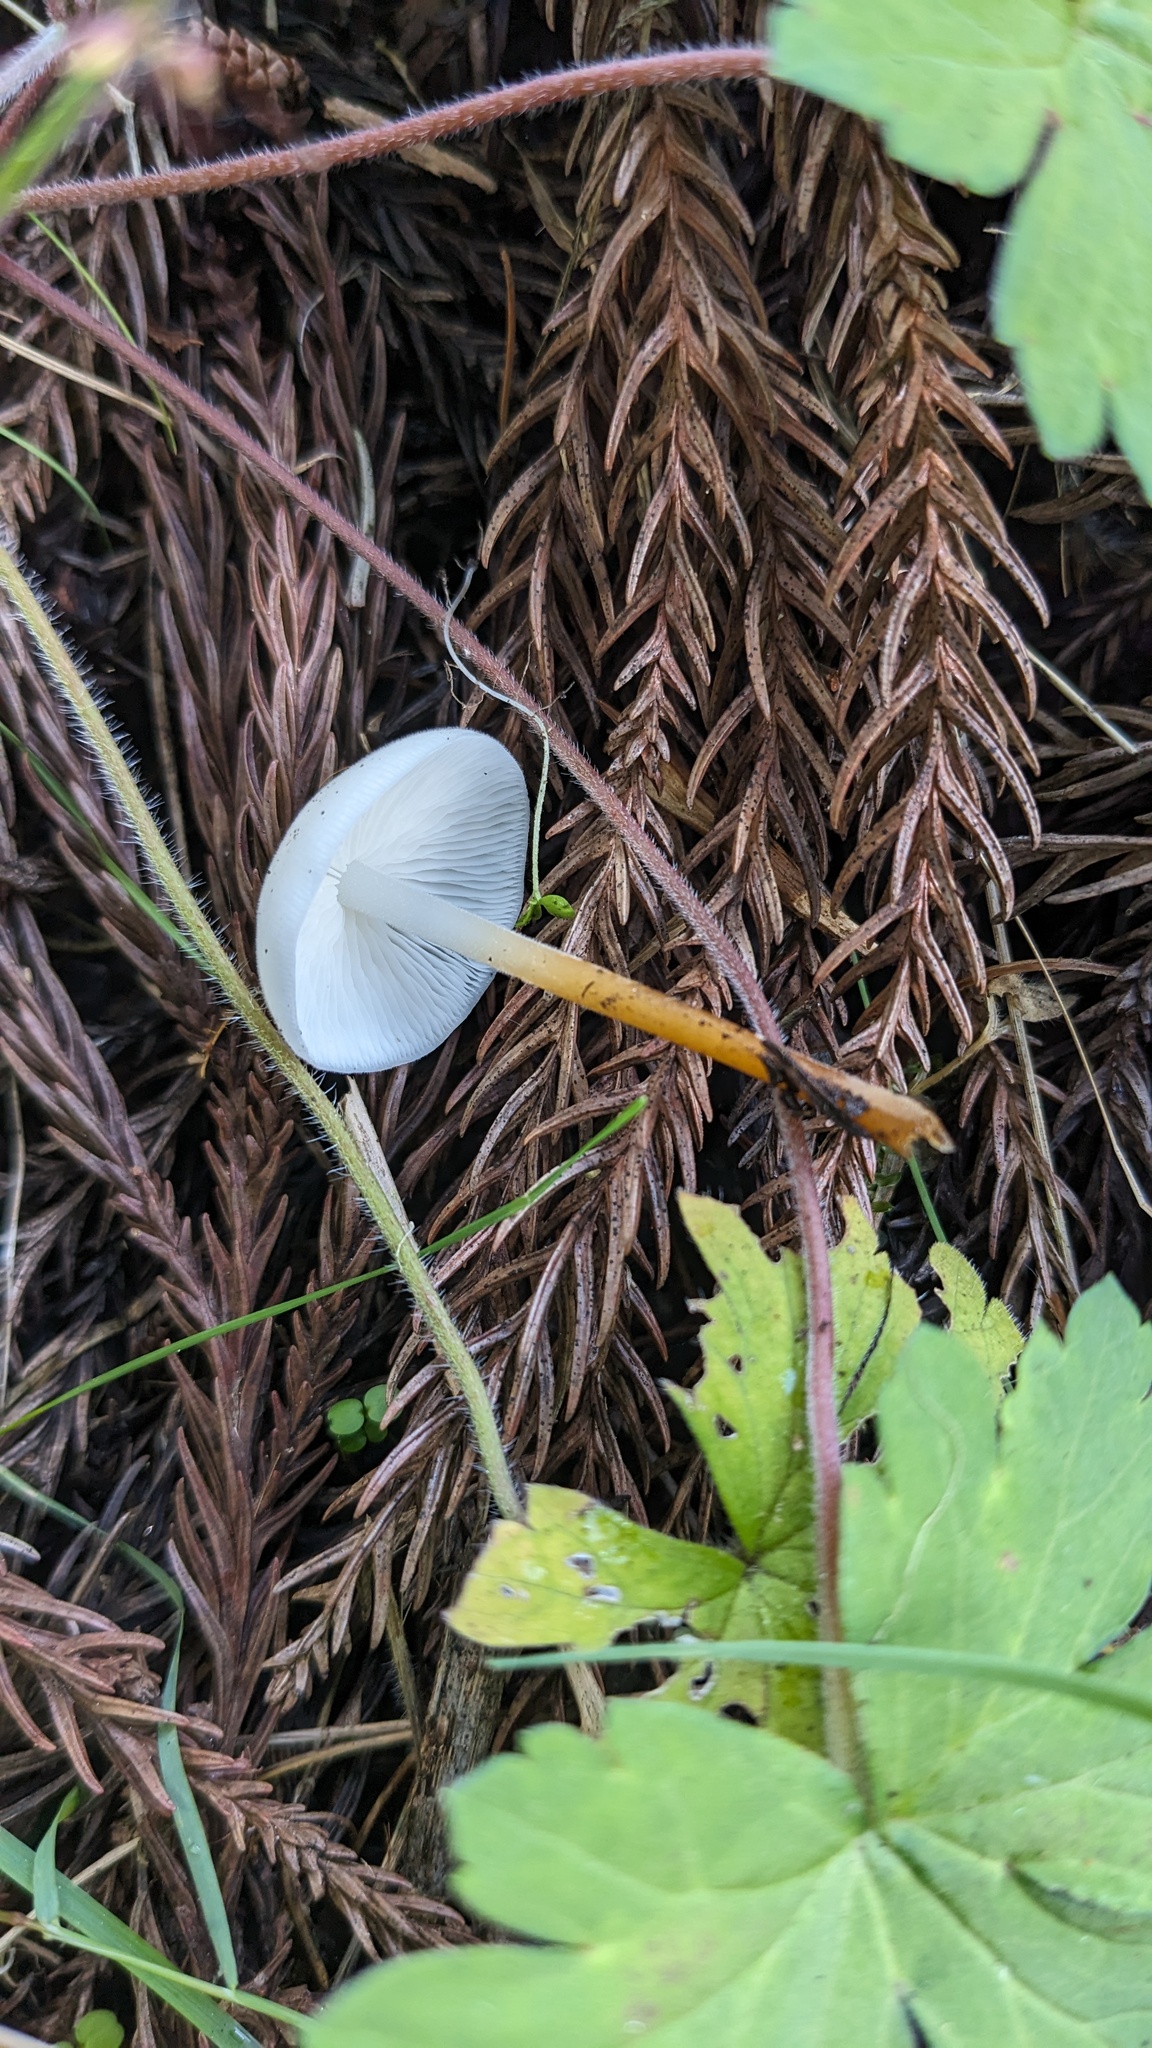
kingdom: Fungi
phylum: Basidiomycota
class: Agaricomycetes
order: Agaricales
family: Physalacriaceae
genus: Strobilurus
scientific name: Strobilurus ohshimae
